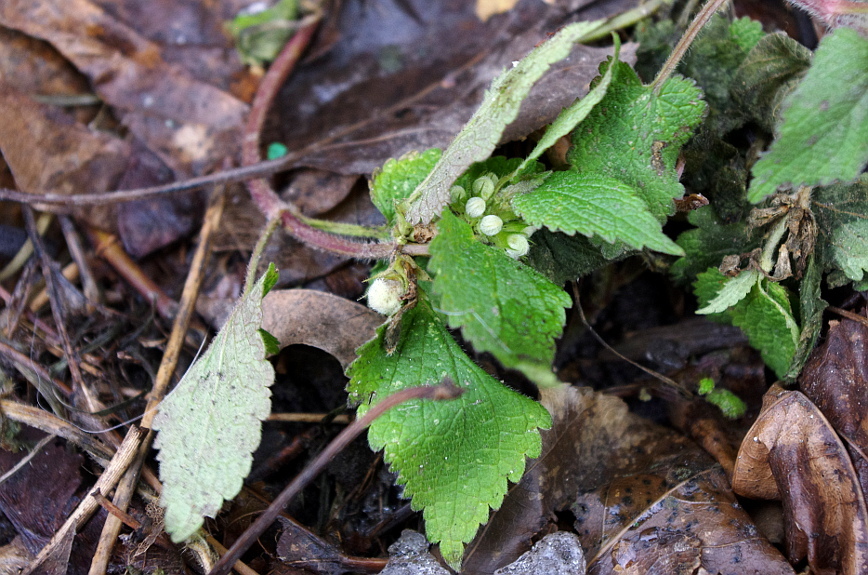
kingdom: Plantae
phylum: Tracheophyta
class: Magnoliopsida
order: Lamiales
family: Lamiaceae
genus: Lamium
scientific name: Lamium album
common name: White dead-nettle
